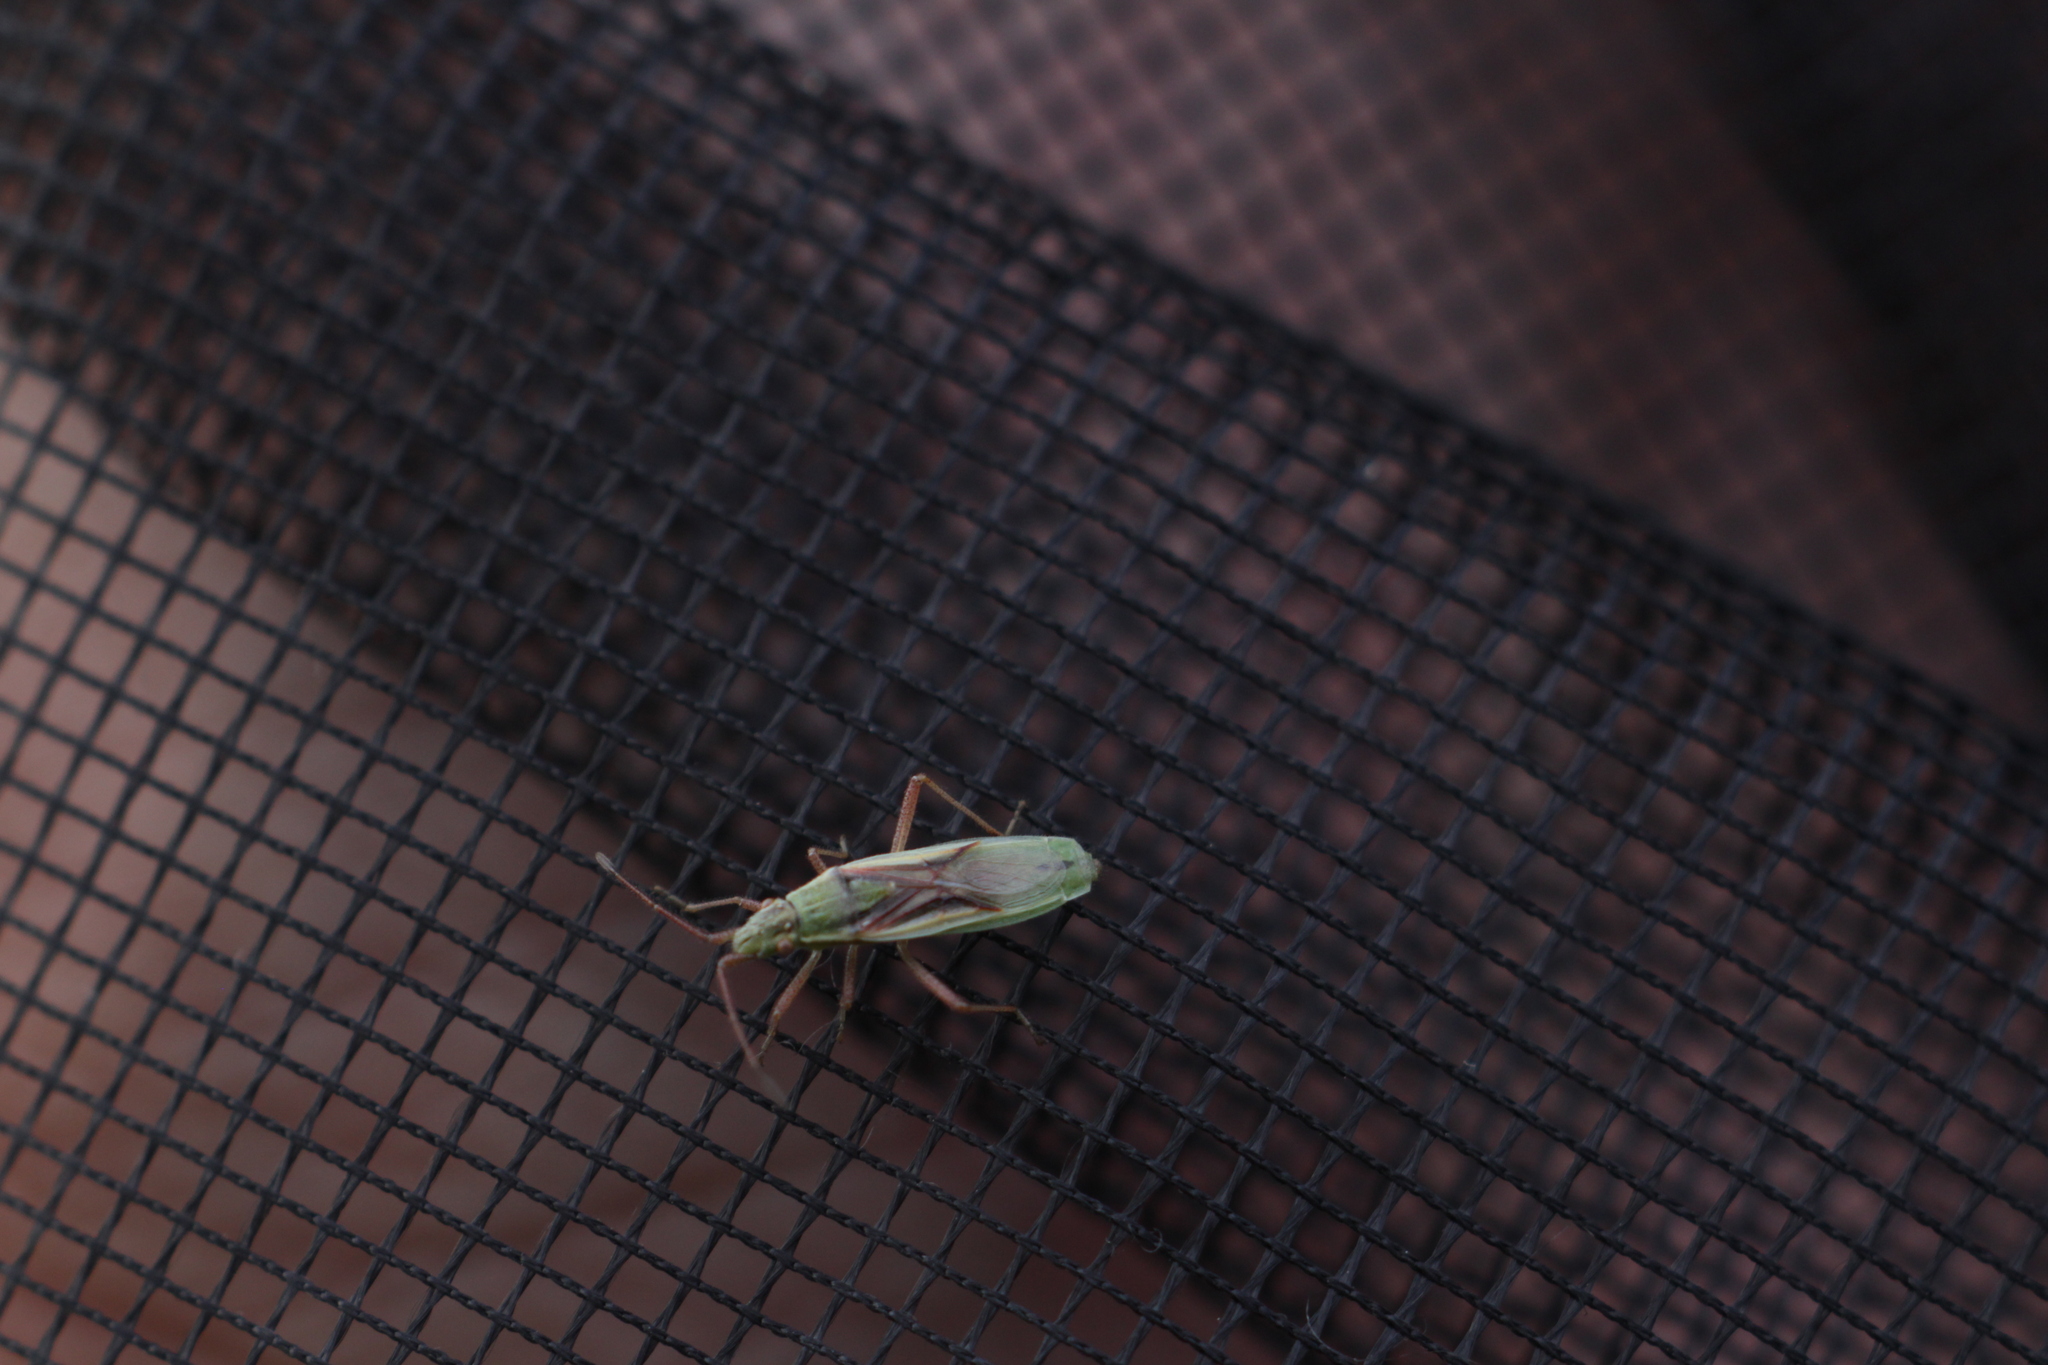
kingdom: Animalia
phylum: Arthropoda
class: Insecta
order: Hemiptera
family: Rhopalidae
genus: Myrmus
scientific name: Myrmus miriformis
